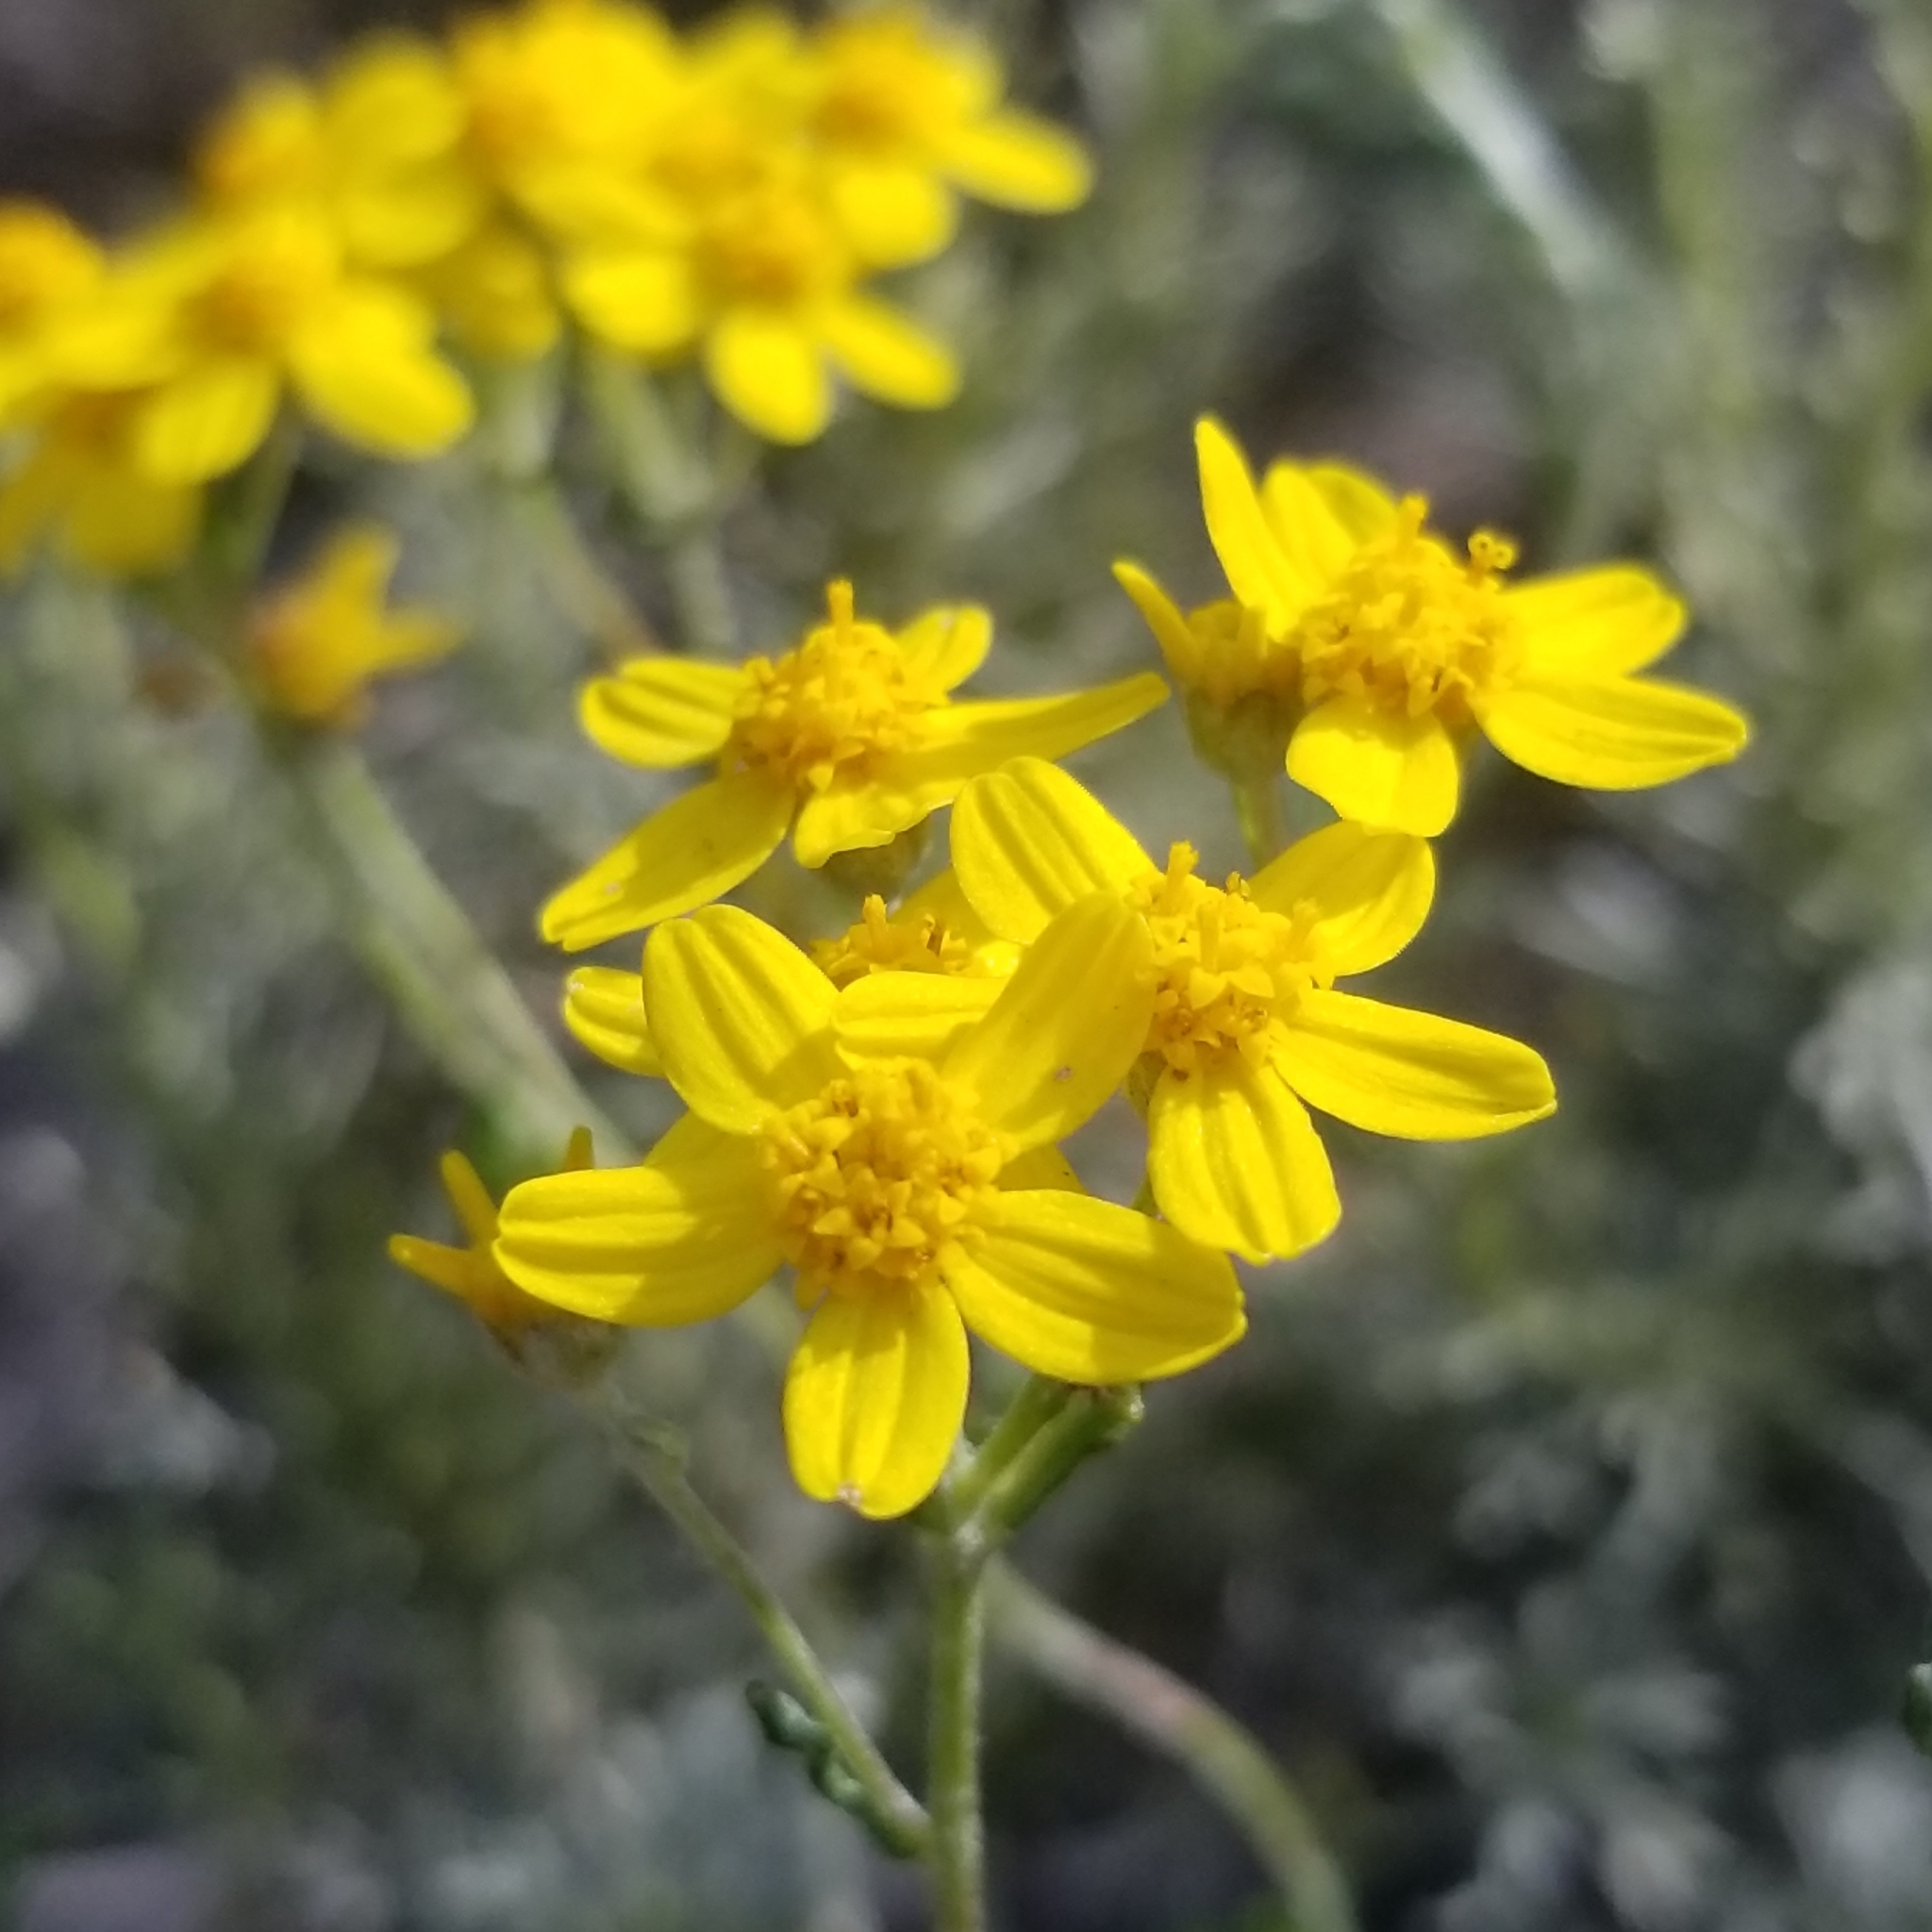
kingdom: Plantae
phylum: Tracheophyta
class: Magnoliopsida
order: Asterales
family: Asteraceae
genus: Eriophyllum
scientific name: Eriophyllum confertiflorum
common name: Golden-yarrow
